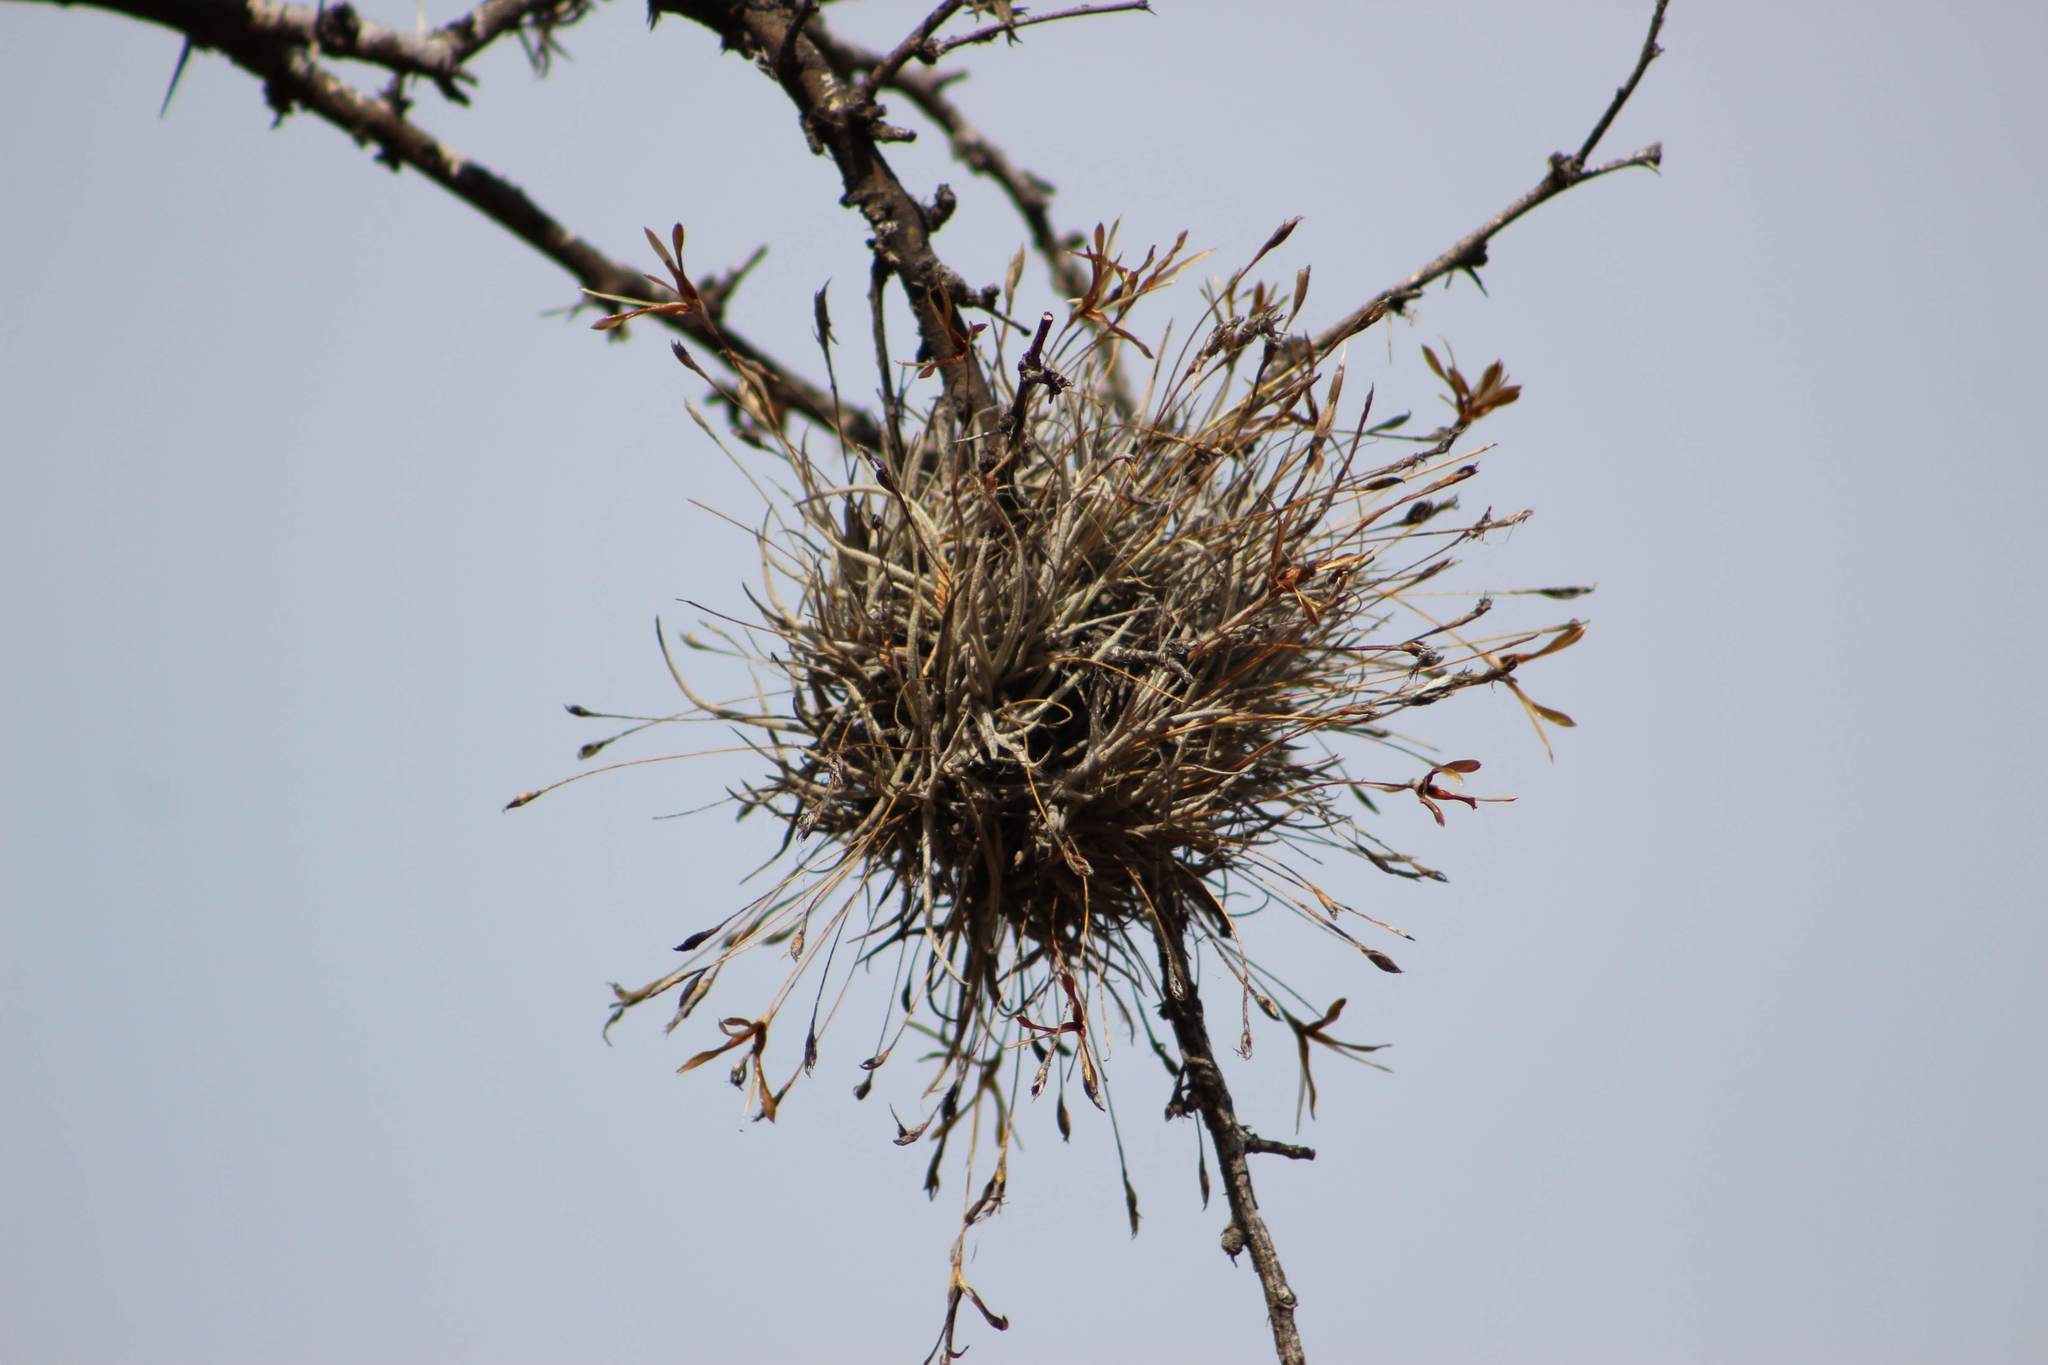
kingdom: Plantae
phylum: Tracheophyta
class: Liliopsida
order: Poales
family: Bromeliaceae
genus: Tillandsia
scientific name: Tillandsia recurvata
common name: Small ballmoss
